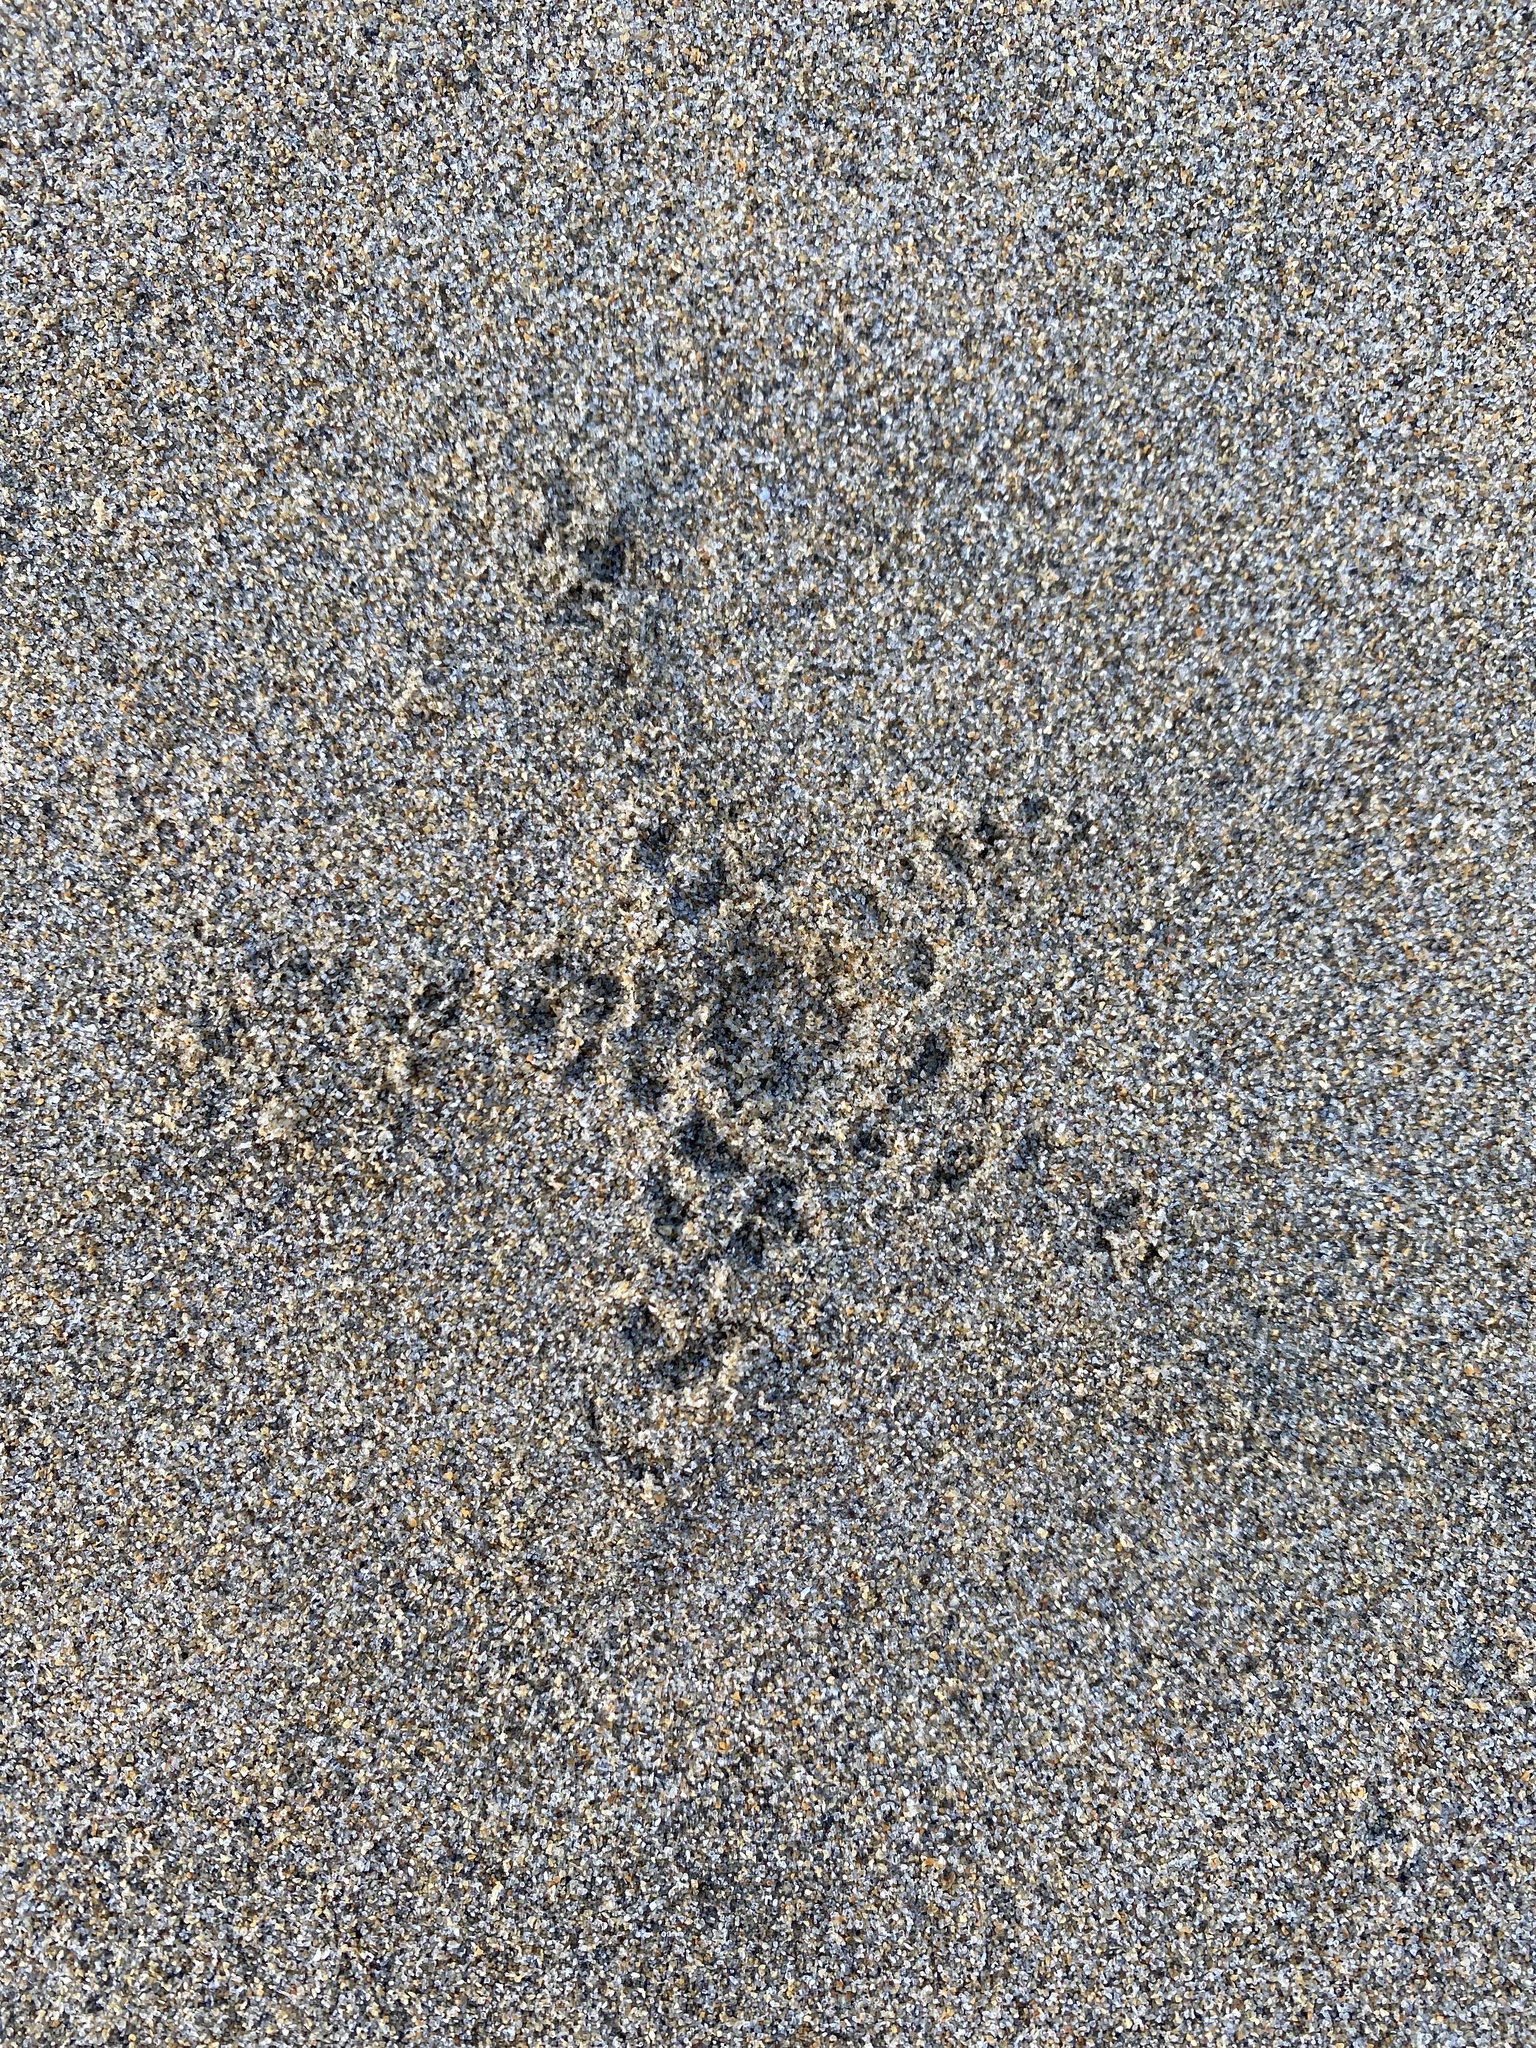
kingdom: Animalia
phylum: Echinodermata
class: Asteroidea
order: Forcipulatida
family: Asteriidae
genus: Pisaster
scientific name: Pisaster ochraceus
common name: Ochre stars
